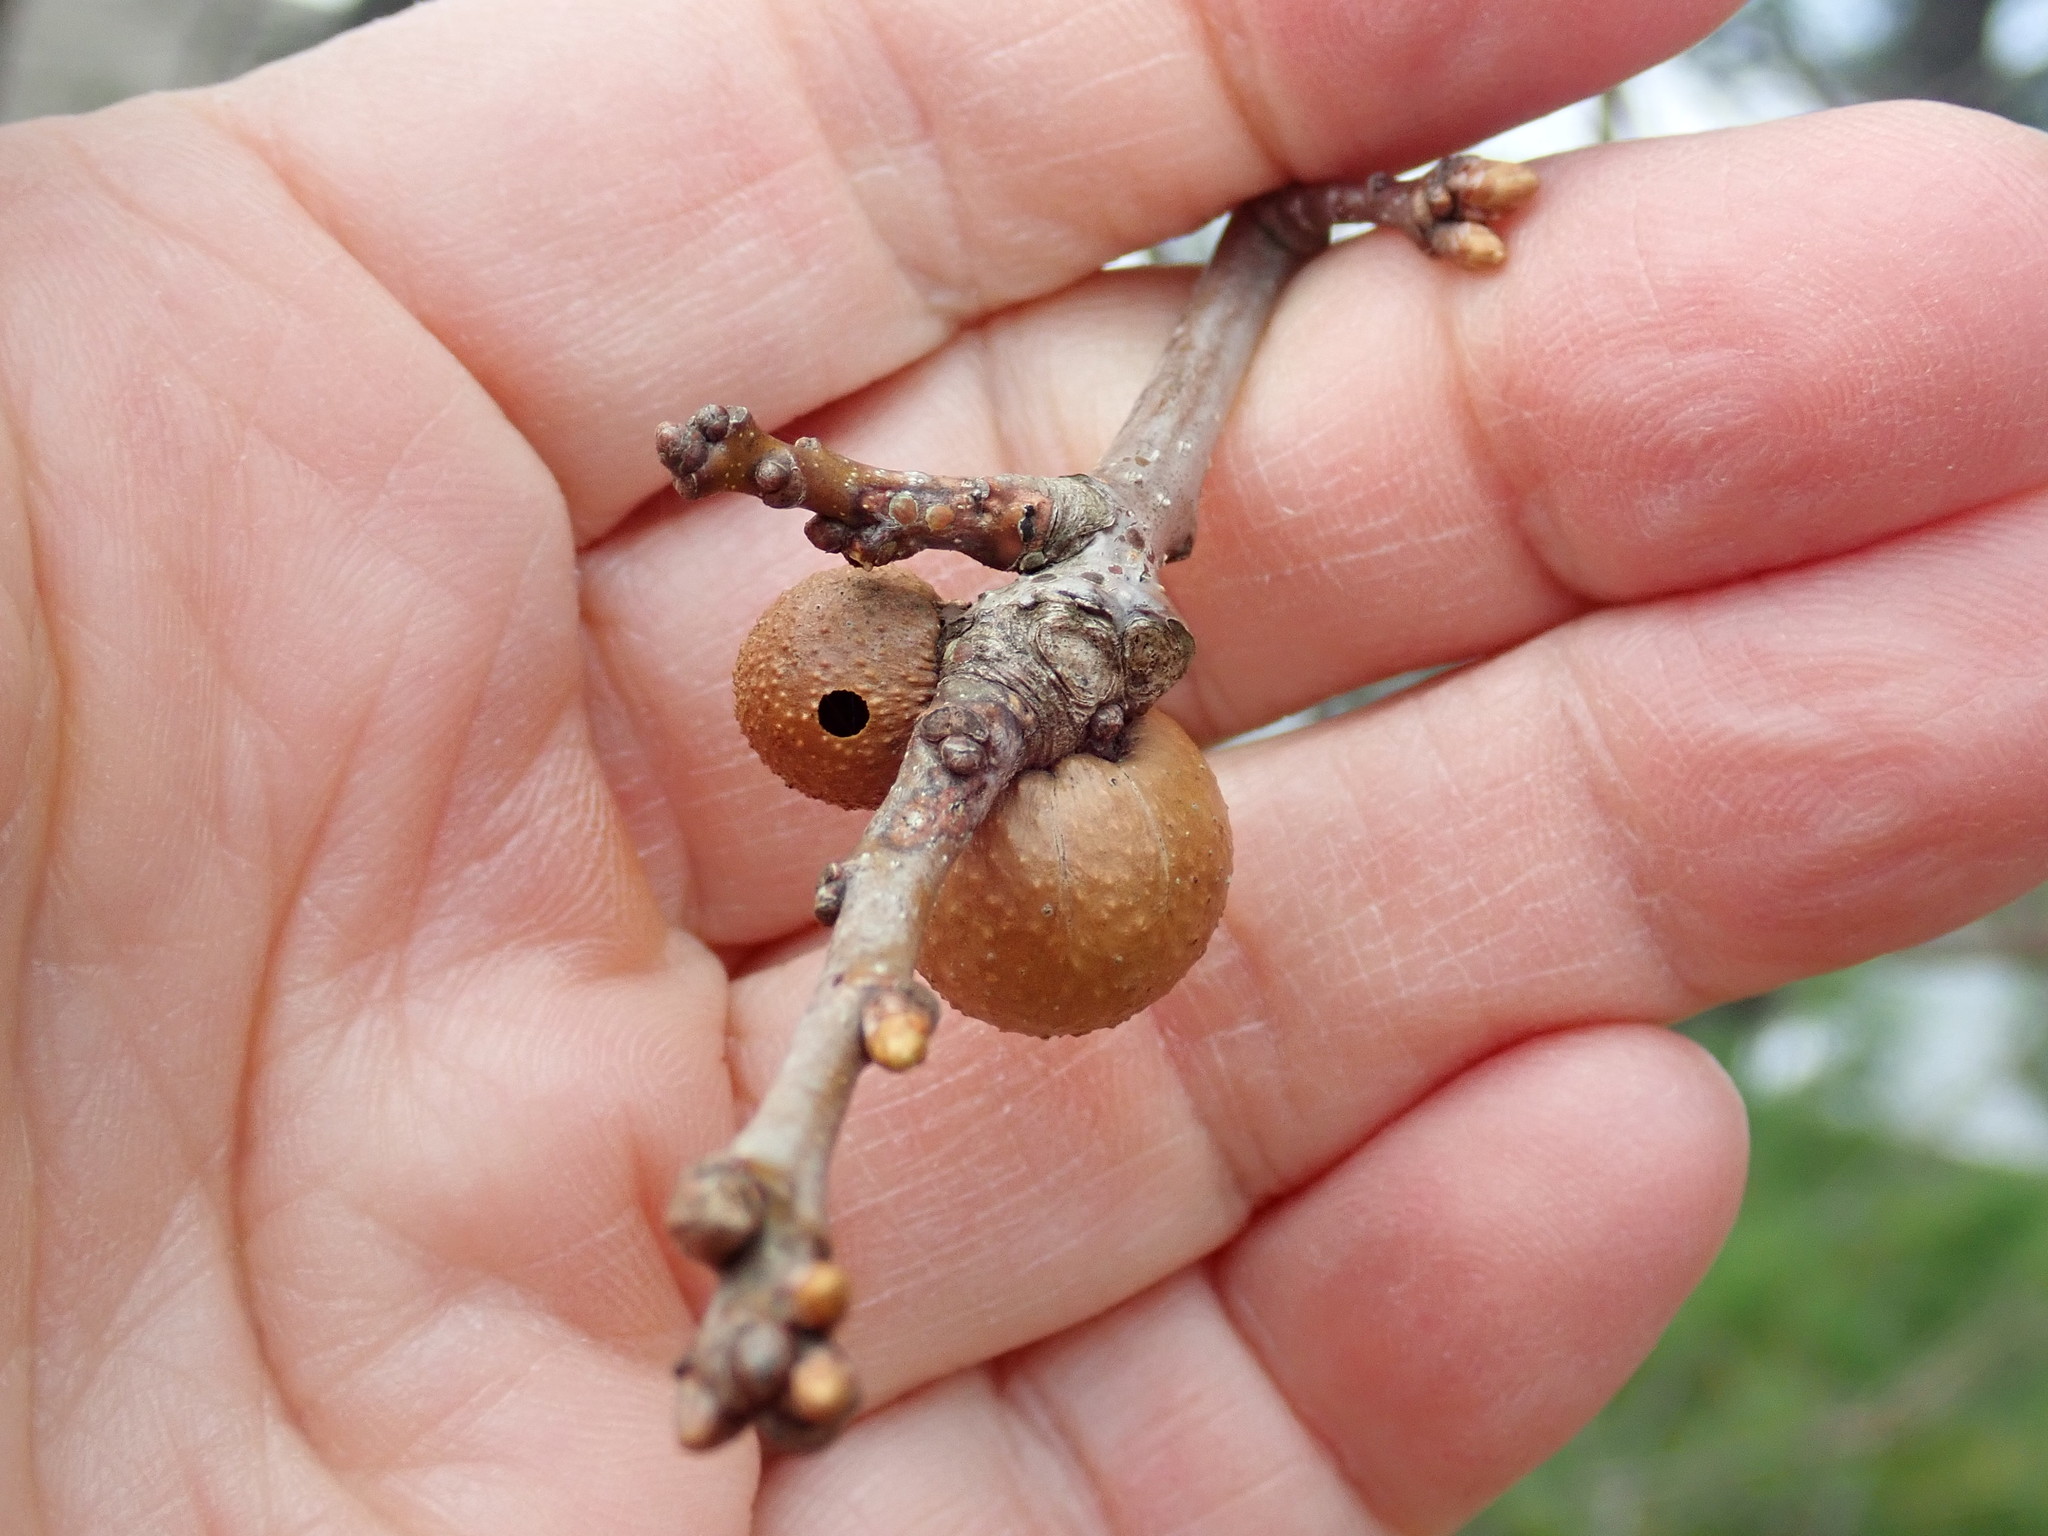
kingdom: Animalia
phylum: Arthropoda
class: Insecta
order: Hymenoptera
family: Cynipidae
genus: Disholcaspis
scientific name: Disholcaspis quercusglobulus
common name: Round bullet gall wasp
